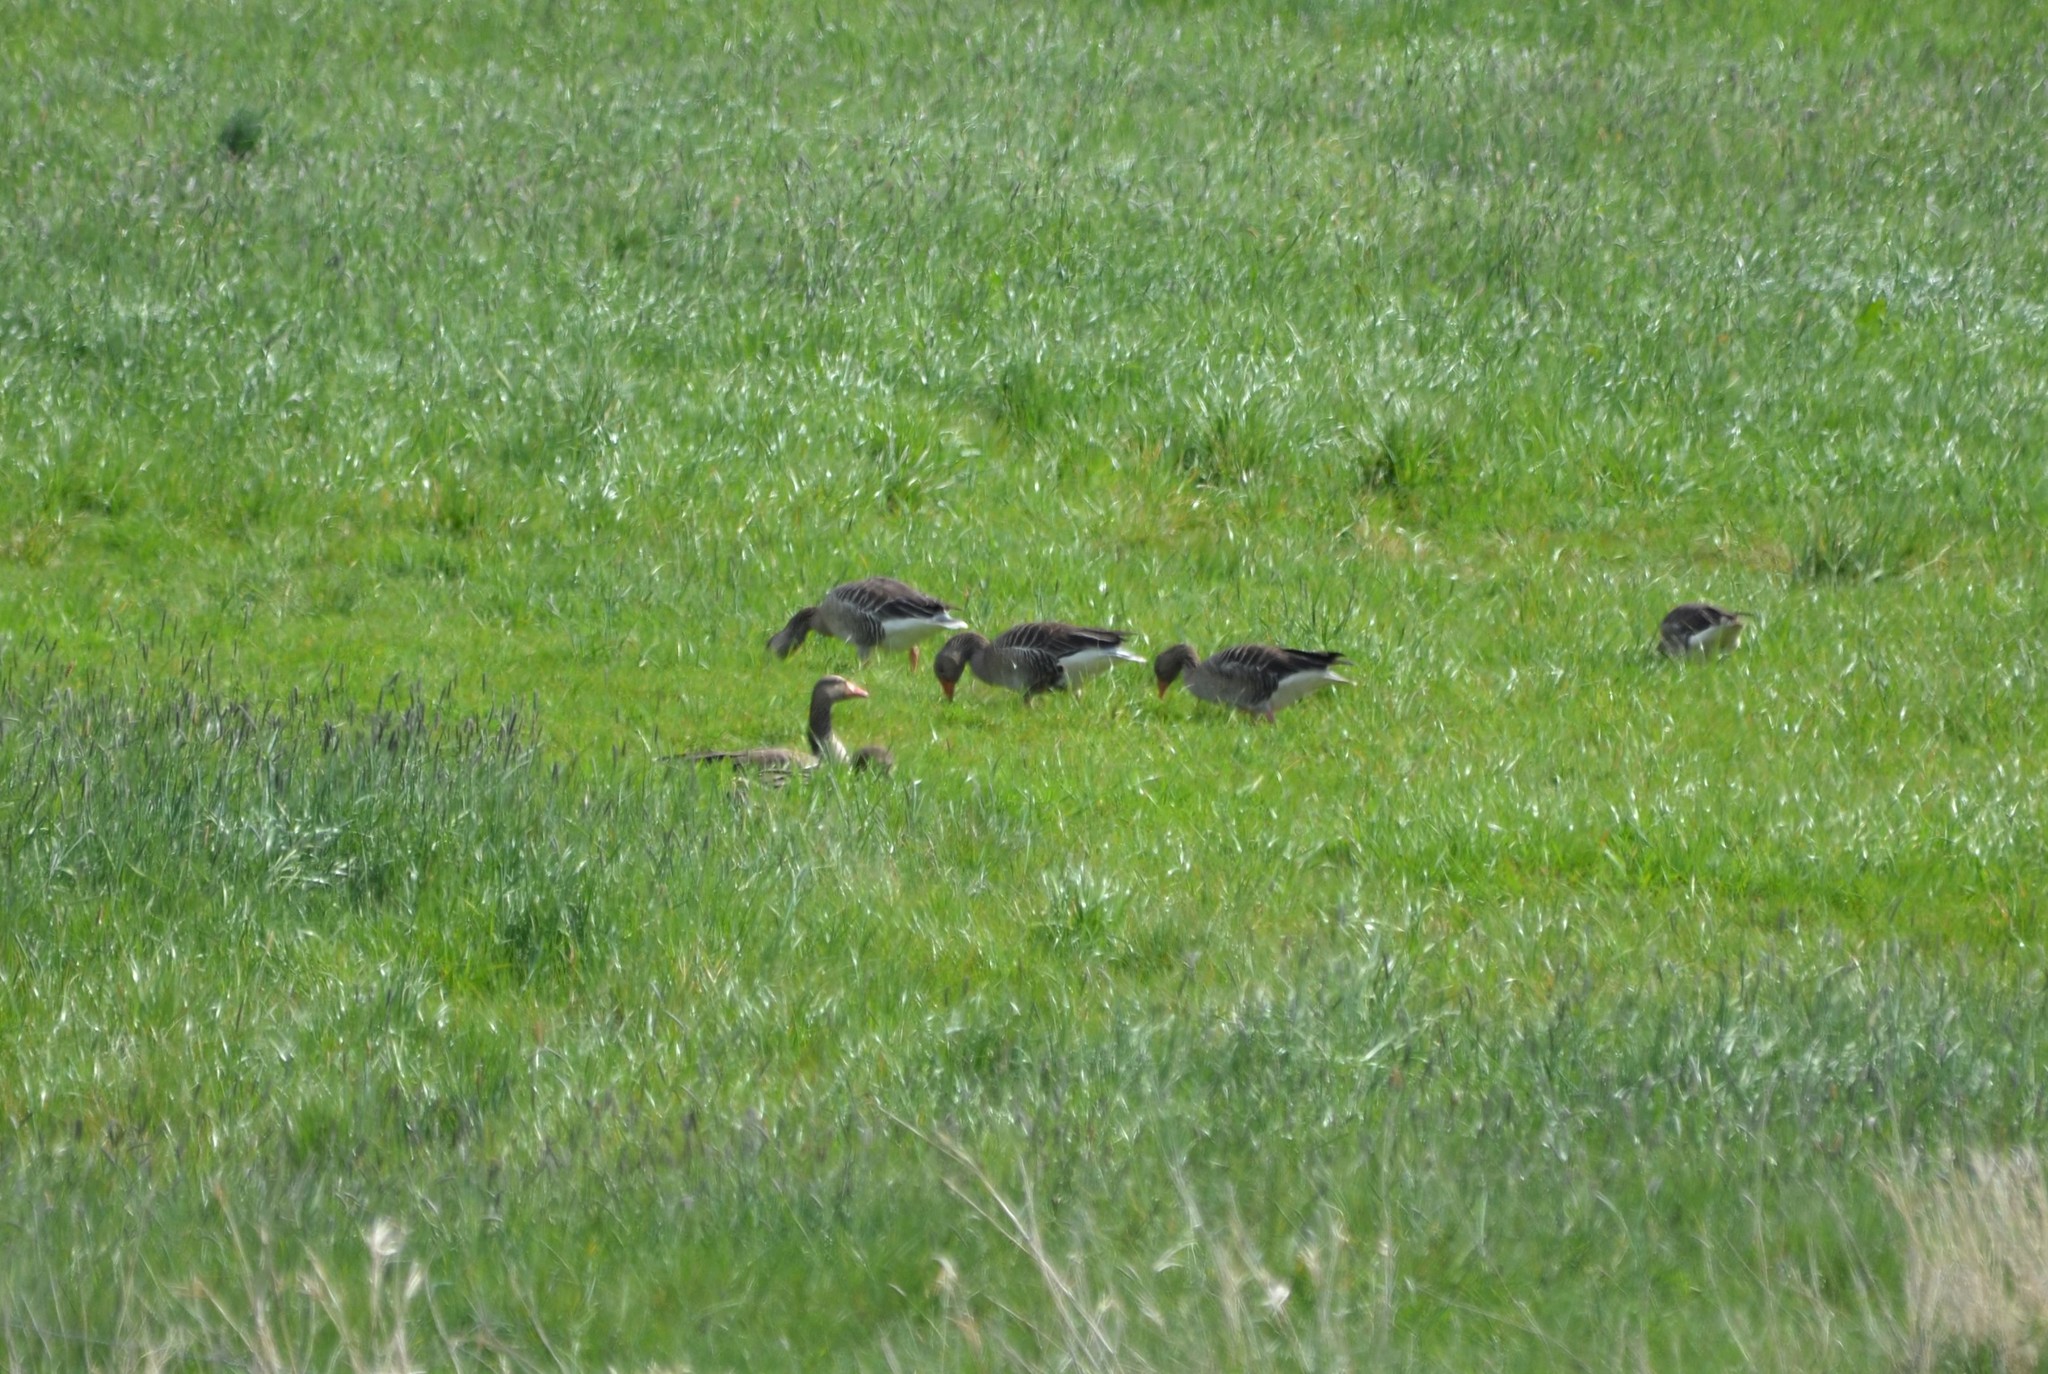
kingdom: Animalia
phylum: Chordata
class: Aves
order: Anseriformes
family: Anatidae
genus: Anser
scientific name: Anser anser
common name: Greylag goose
